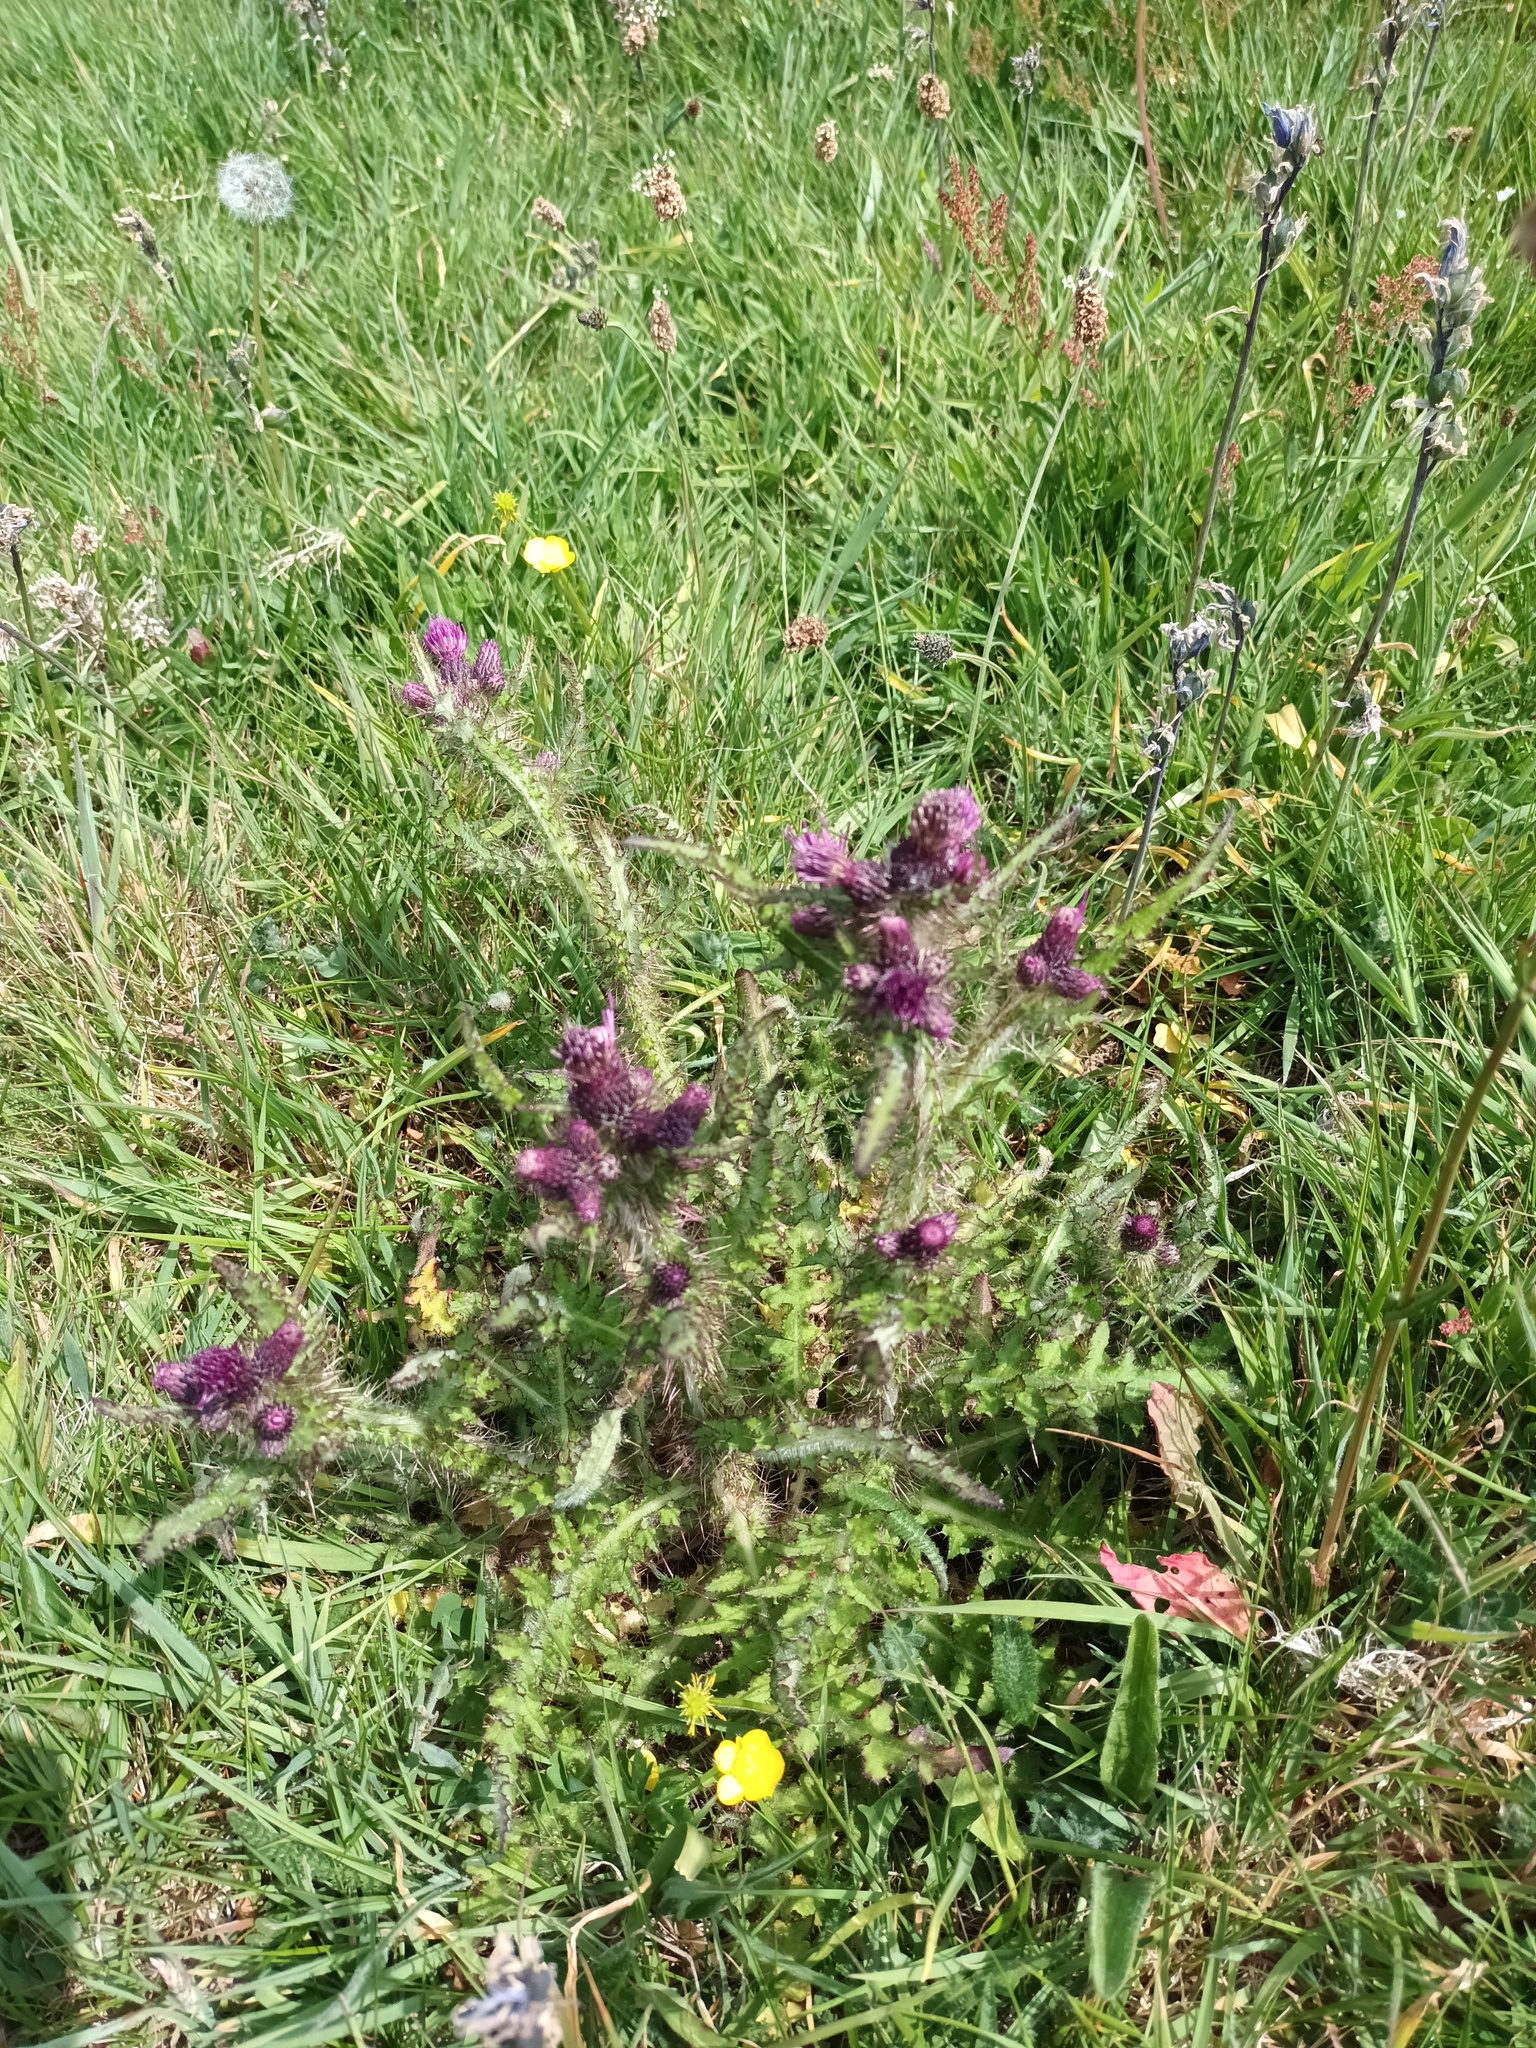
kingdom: Plantae
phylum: Tracheophyta
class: Magnoliopsida
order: Asterales
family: Asteraceae
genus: Cirsium
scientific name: Cirsium palustre
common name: Marsh thistle
